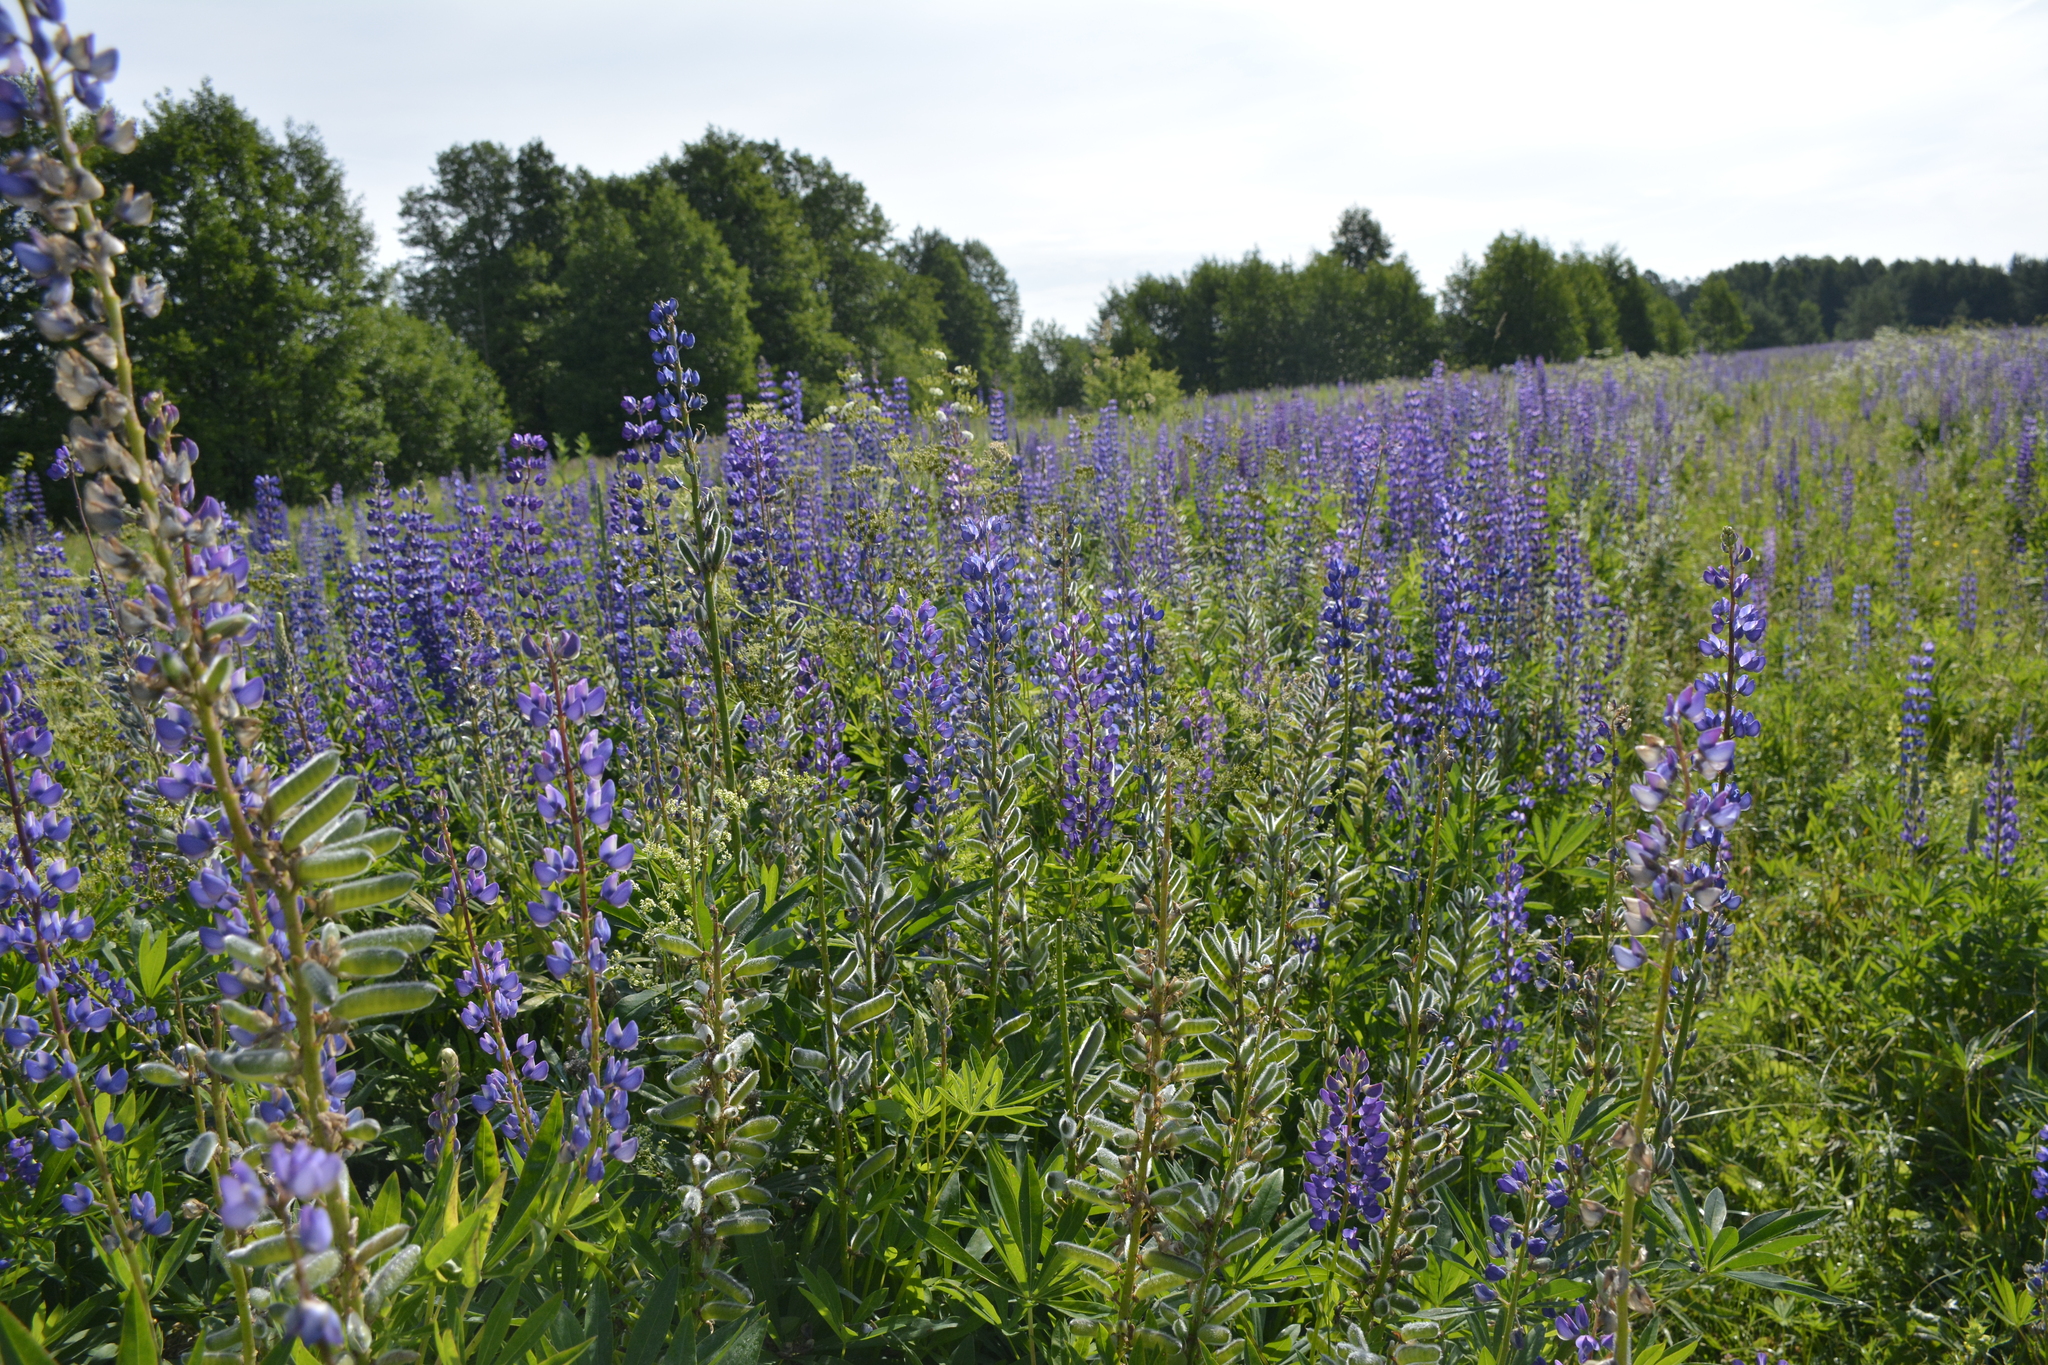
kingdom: Plantae
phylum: Tracheophyta
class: Magnoliopsida
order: Fabales
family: Fabaceae
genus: Lupinus
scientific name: Lupinus polyphyllus
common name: Garden lupin
